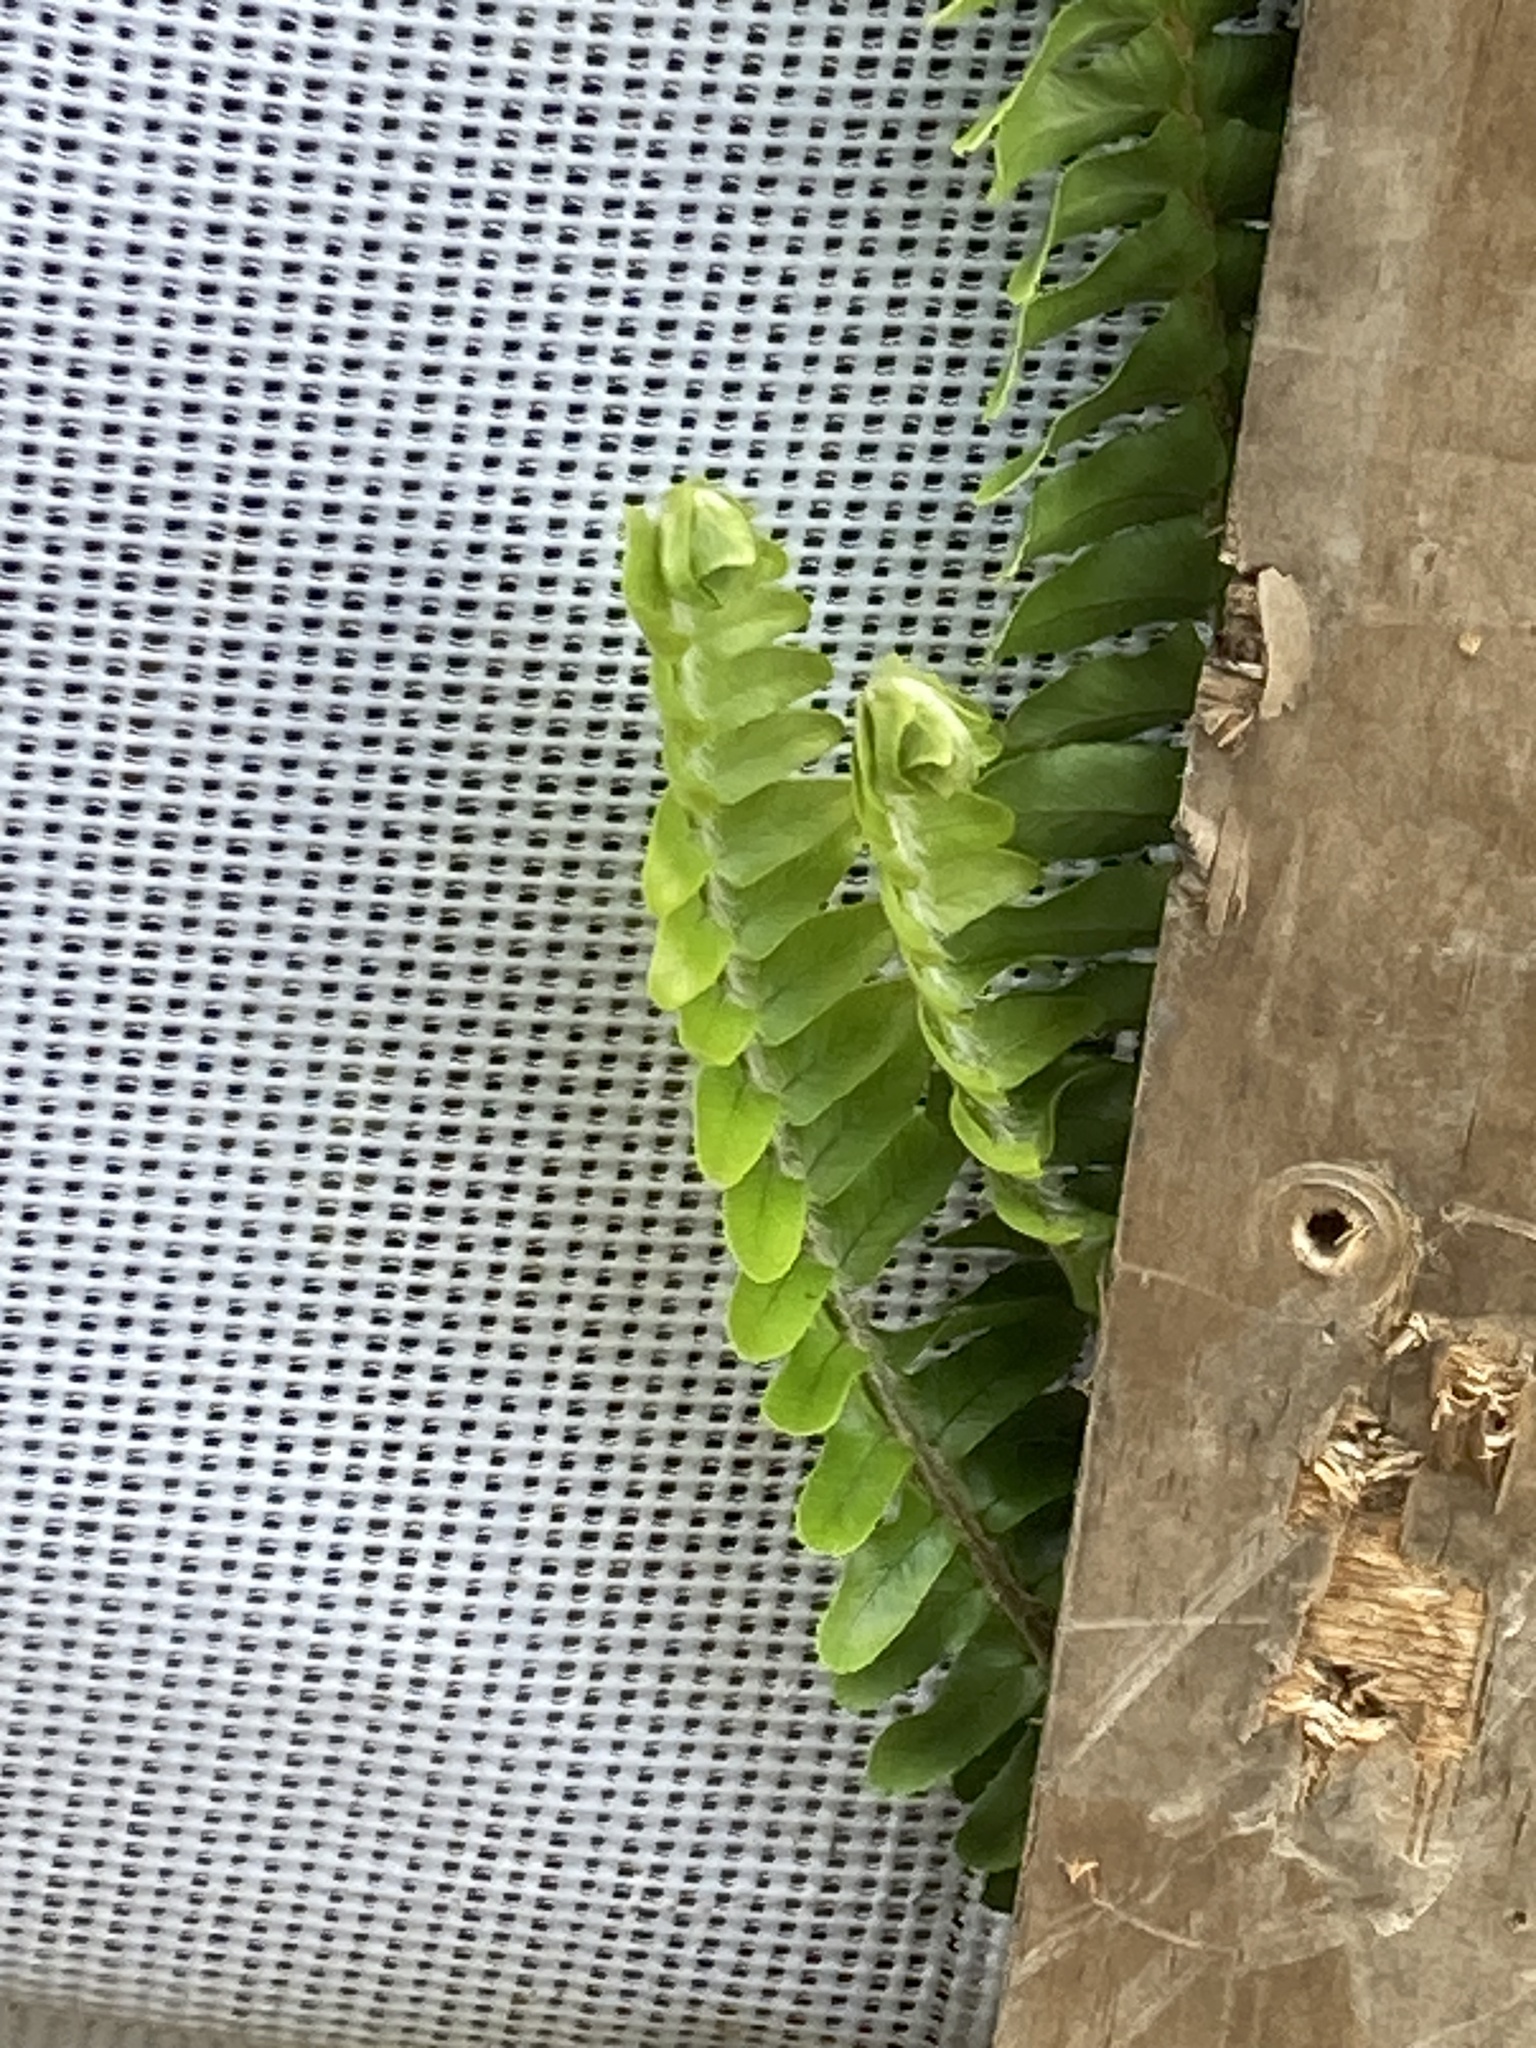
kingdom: Plantae
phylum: Tracheophyta
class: Polypodiopsida
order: Polypodiales
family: Nephrolepidaceae
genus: Nephrolepis
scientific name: Nephrolepis cordifolia
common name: Narrow swordfern
